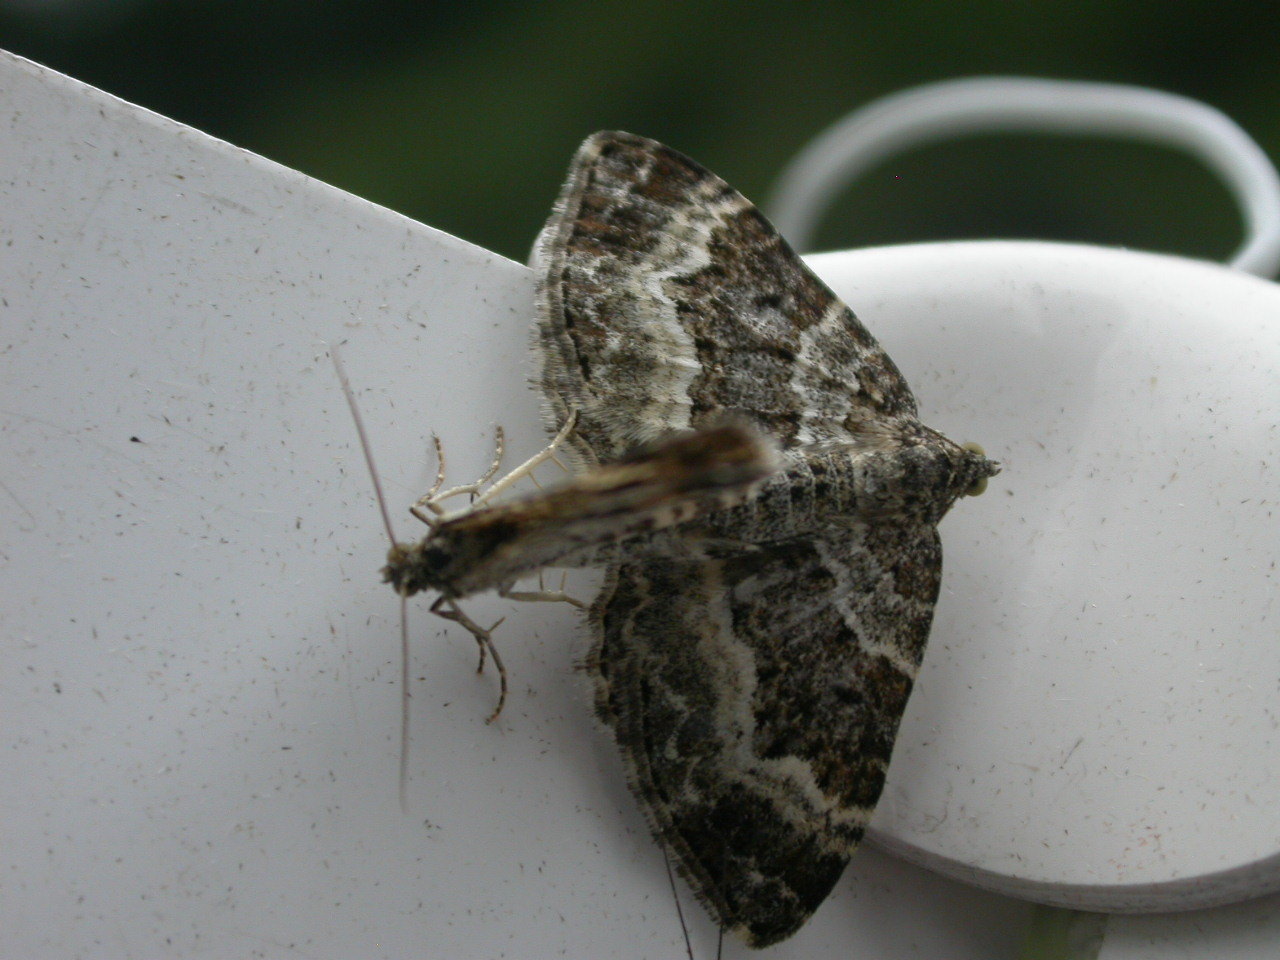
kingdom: Animalia
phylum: Arthropoda
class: Insecta
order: Lepidoptera
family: Geometridae
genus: Epirrhoe
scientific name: Epirrhoe alternata
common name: Common carpet
